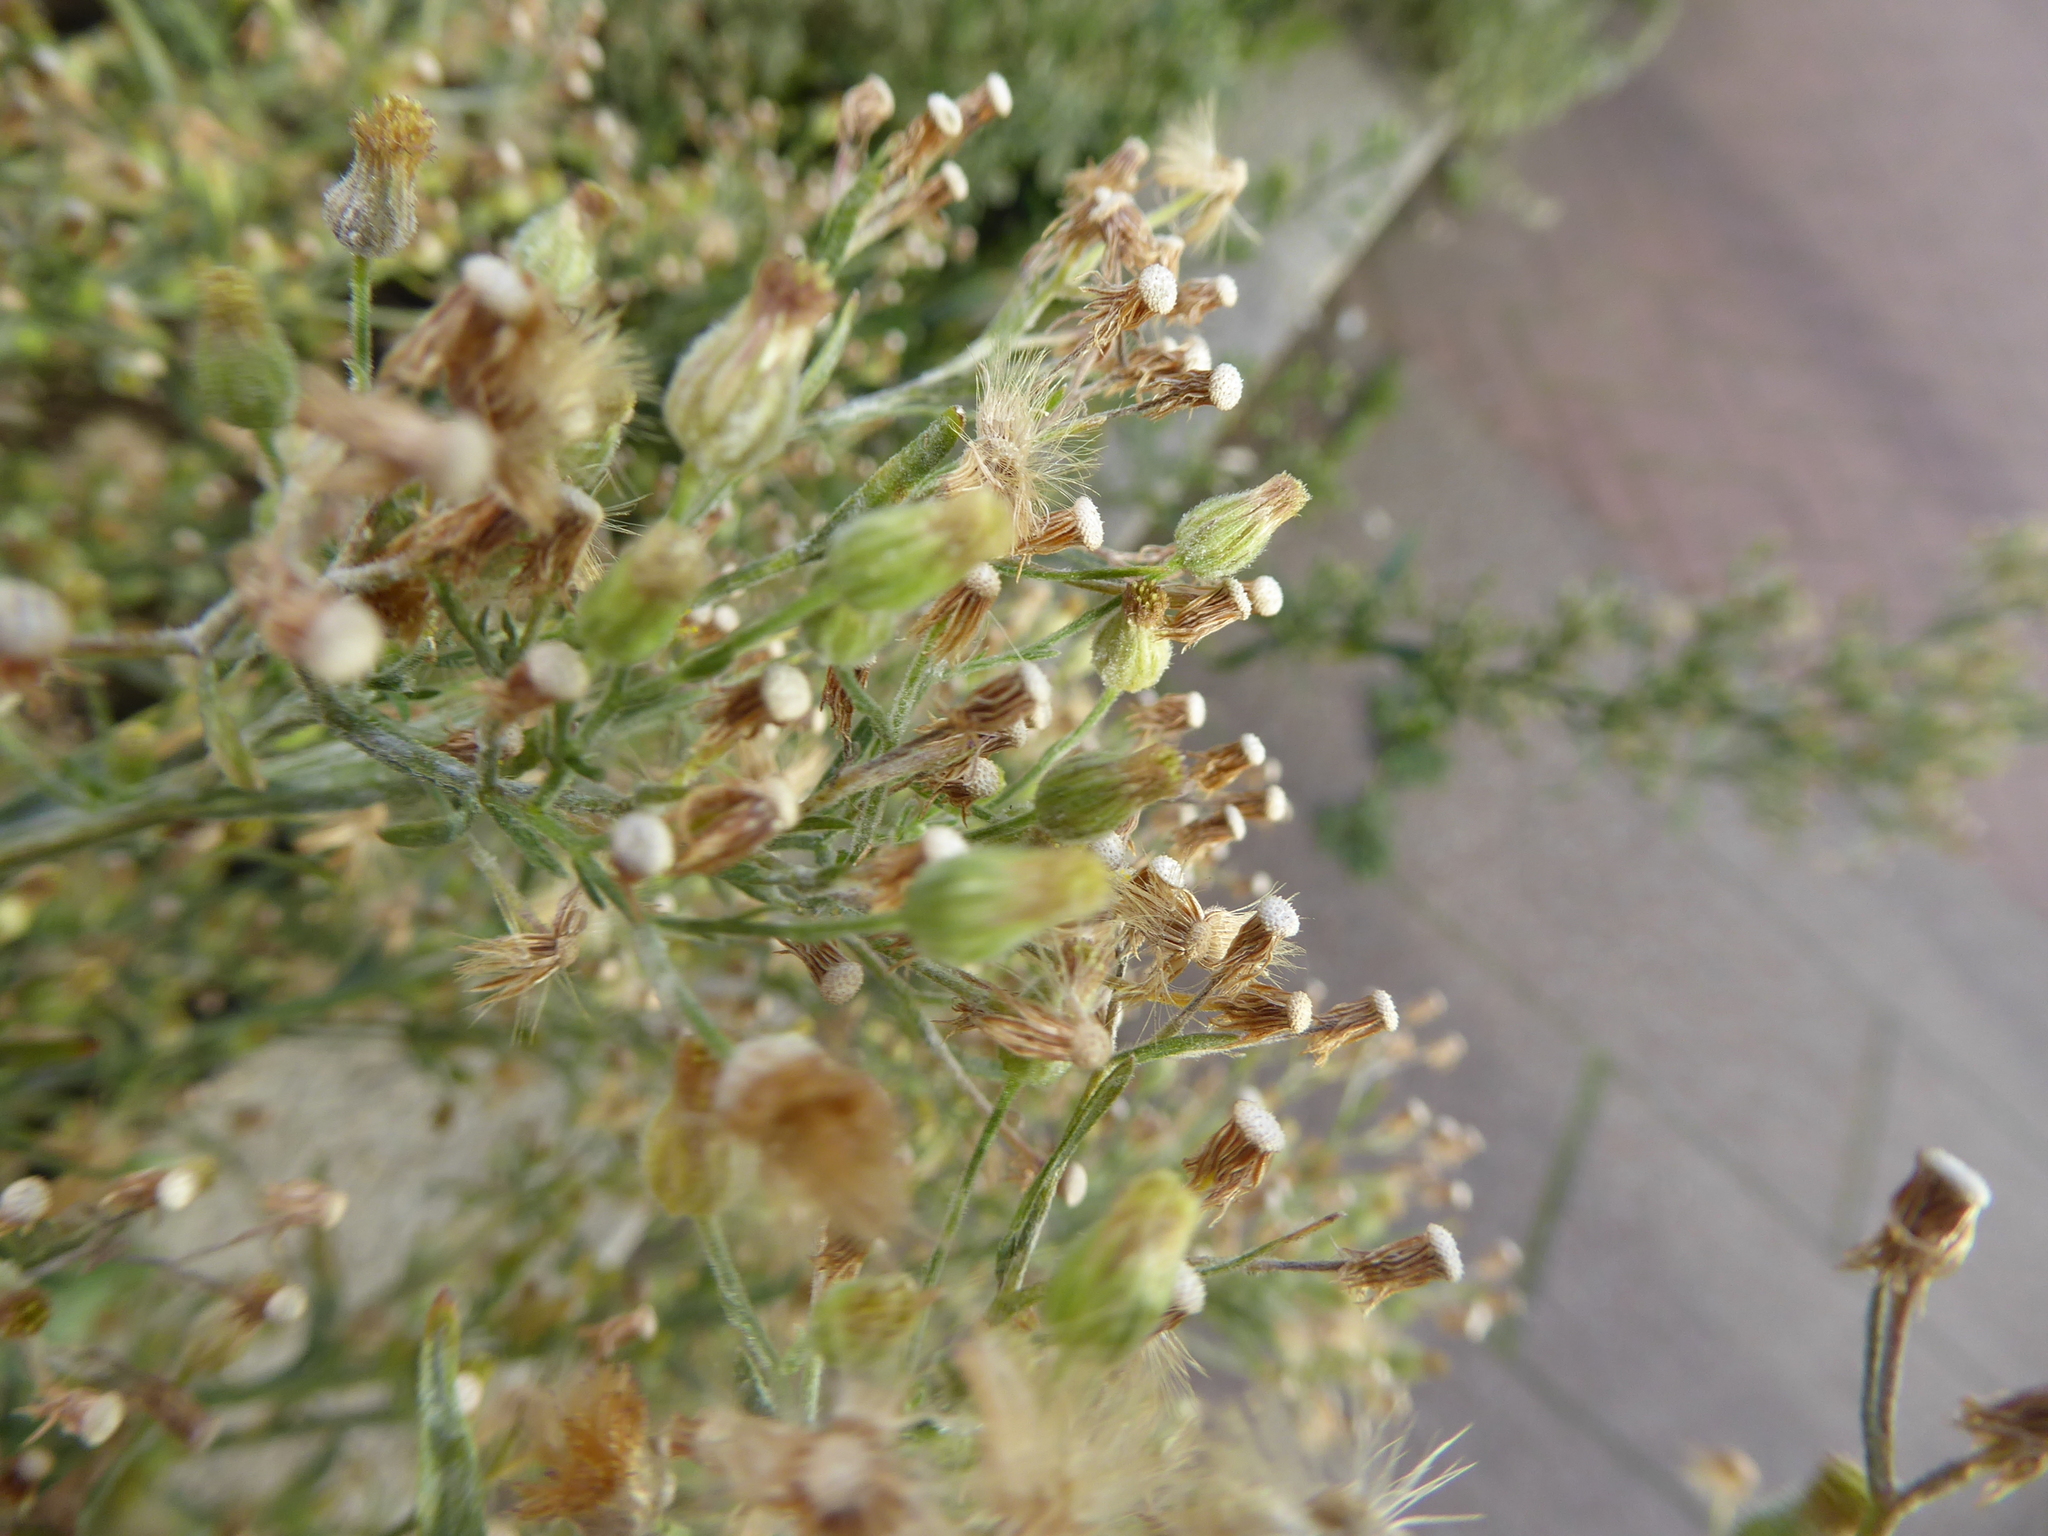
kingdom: Plantae
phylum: Tracheophyta
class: Magnoliopsida
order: Asterales
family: Asteraceae
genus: Erigeron
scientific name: Erigeron sumatrensis
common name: Daisy
